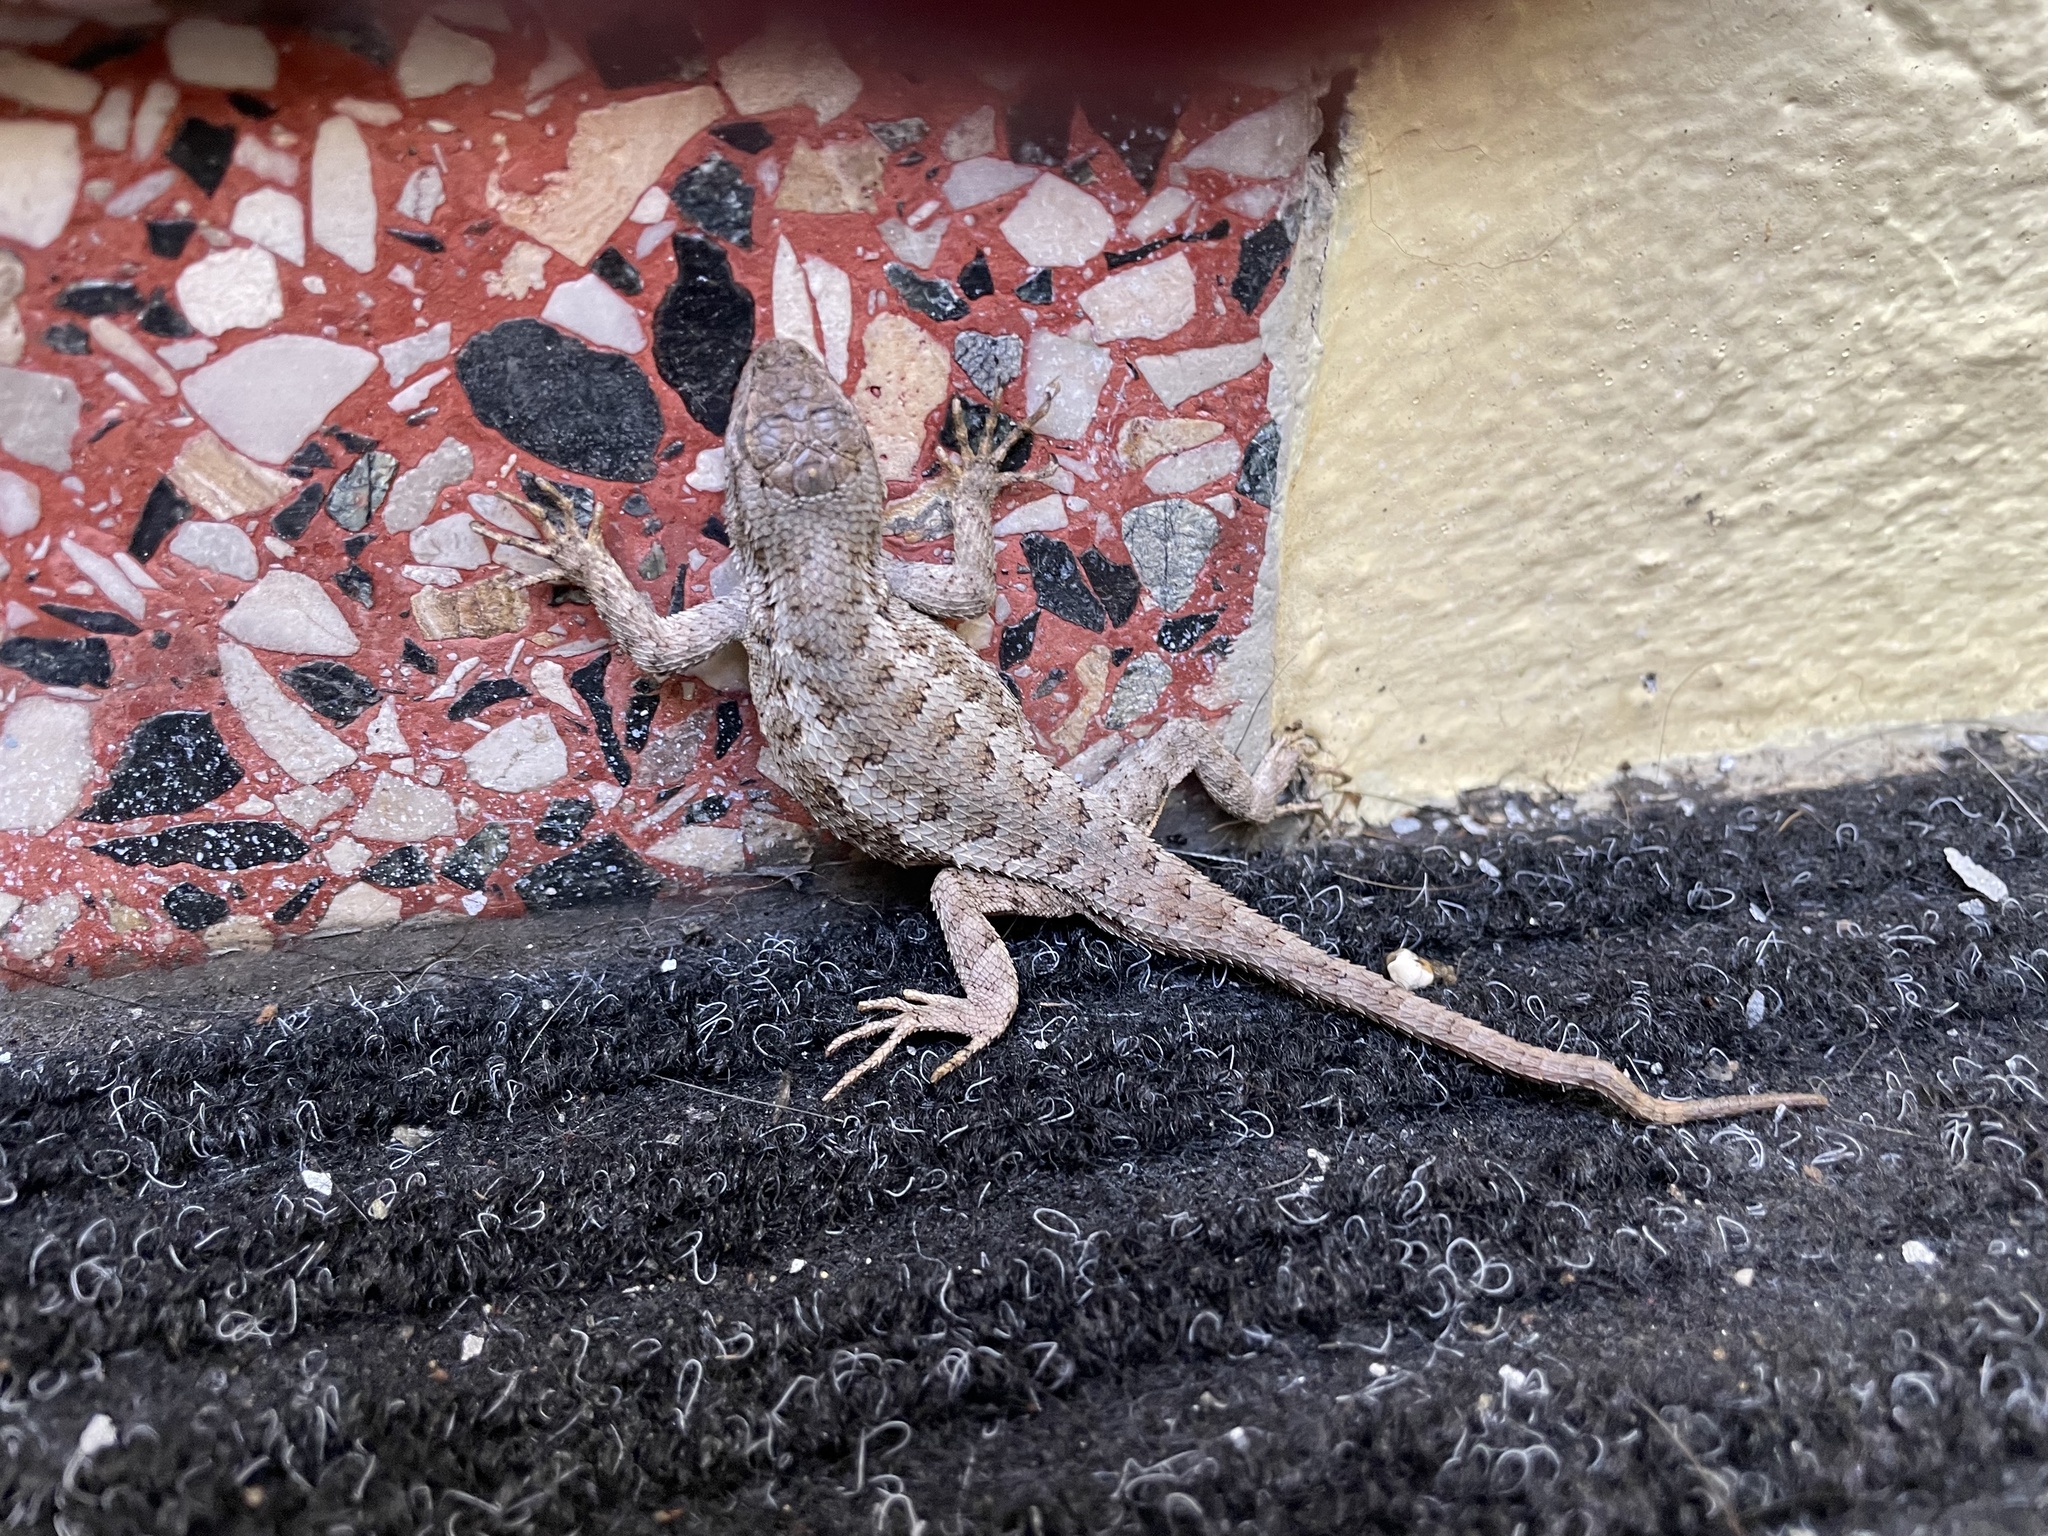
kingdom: Animalia
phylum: Chordata
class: Squamata
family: Phrynosomatidae
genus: Sceloporus
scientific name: Sceloporus occidentalis
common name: Western fence lizard
